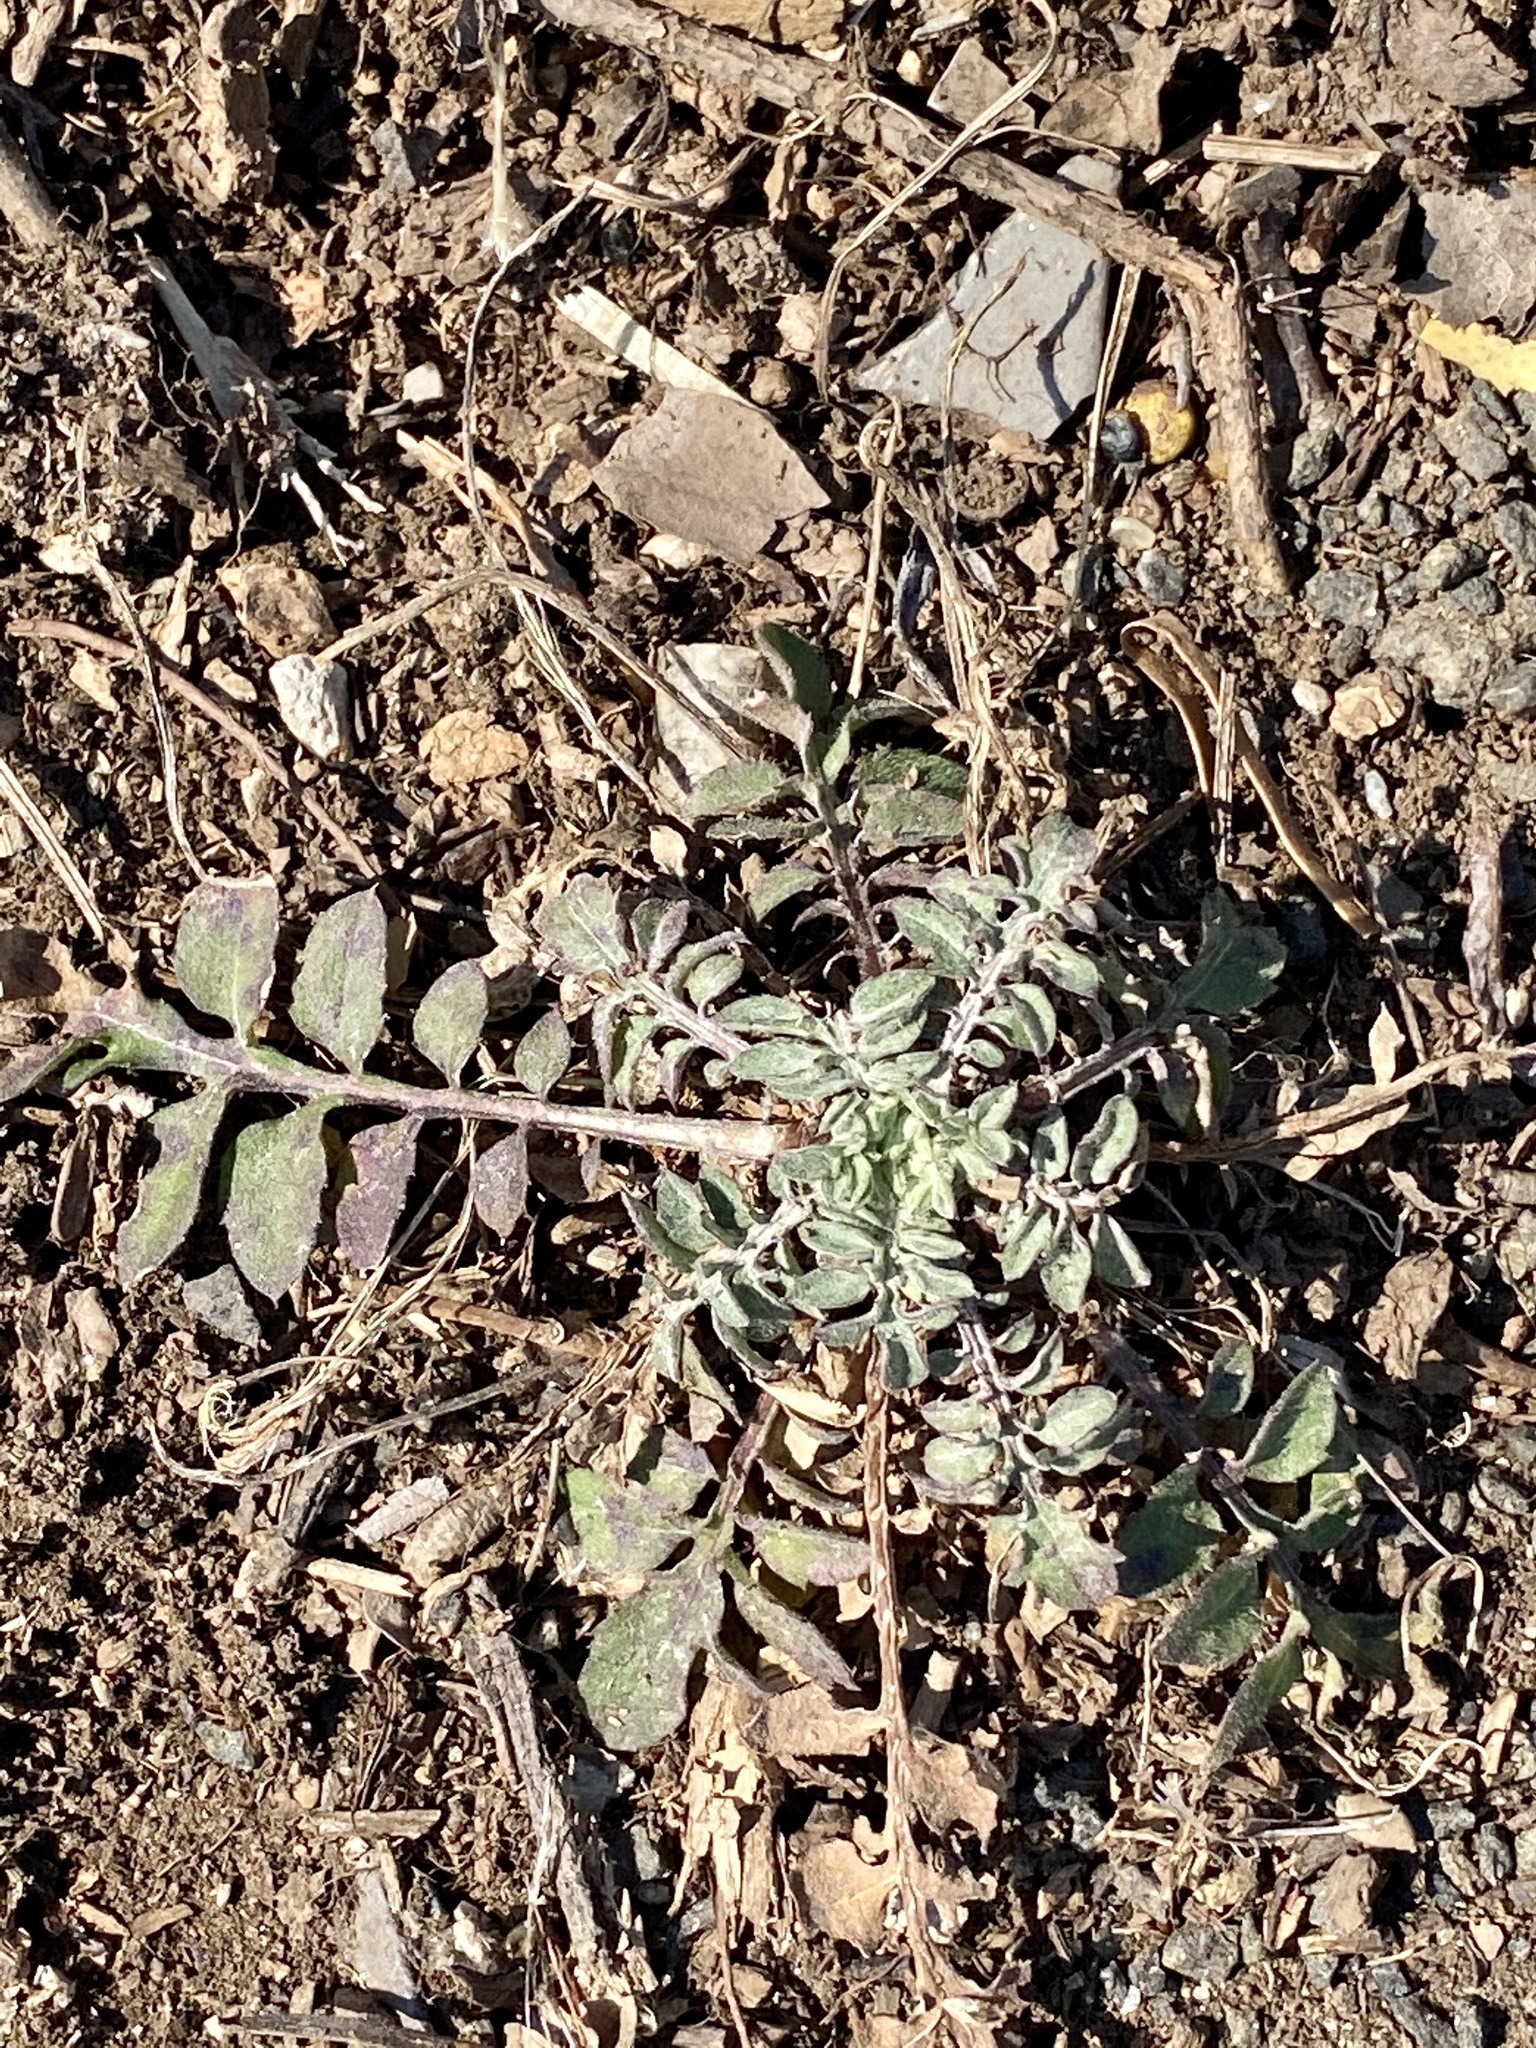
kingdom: Plantae
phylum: Tracheophyta
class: Magnoliopsida
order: Asterales
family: Asteraceae
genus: Centaurea
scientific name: Centaurea stoebe
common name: Spotted knapweed
